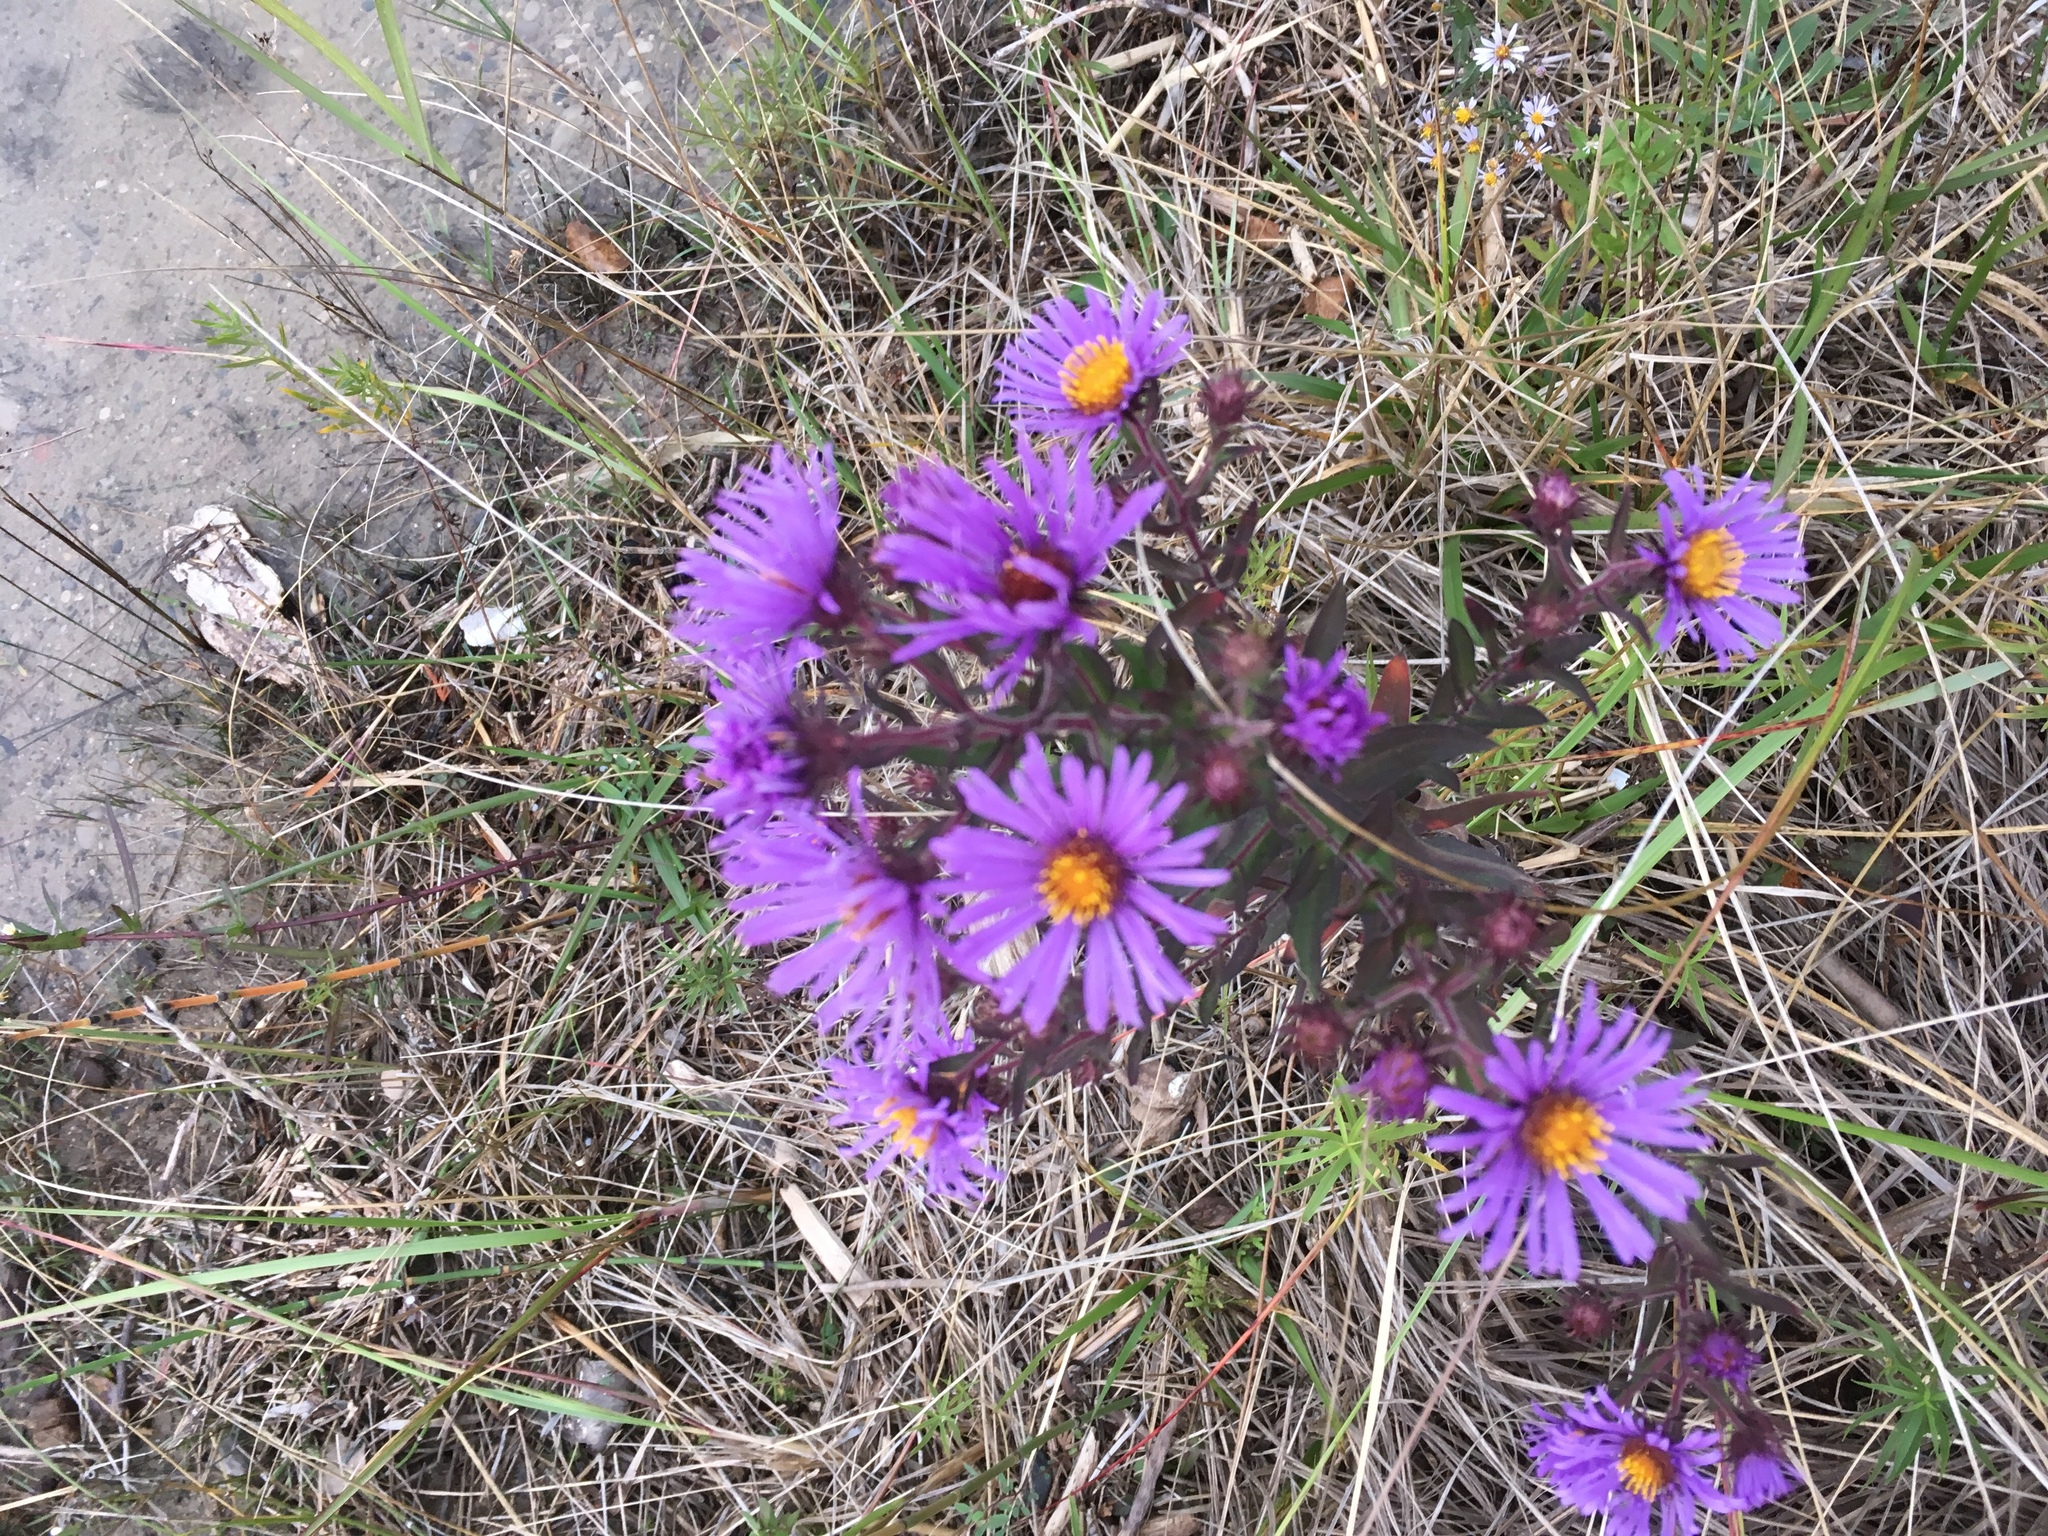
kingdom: Plantae
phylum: Tracheophyta
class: Magnoliopsida
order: Asterales
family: Asteraceae
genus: Symphyotrichum
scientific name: Symphyotrichum novae-angliae
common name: Michaelmas daisy
